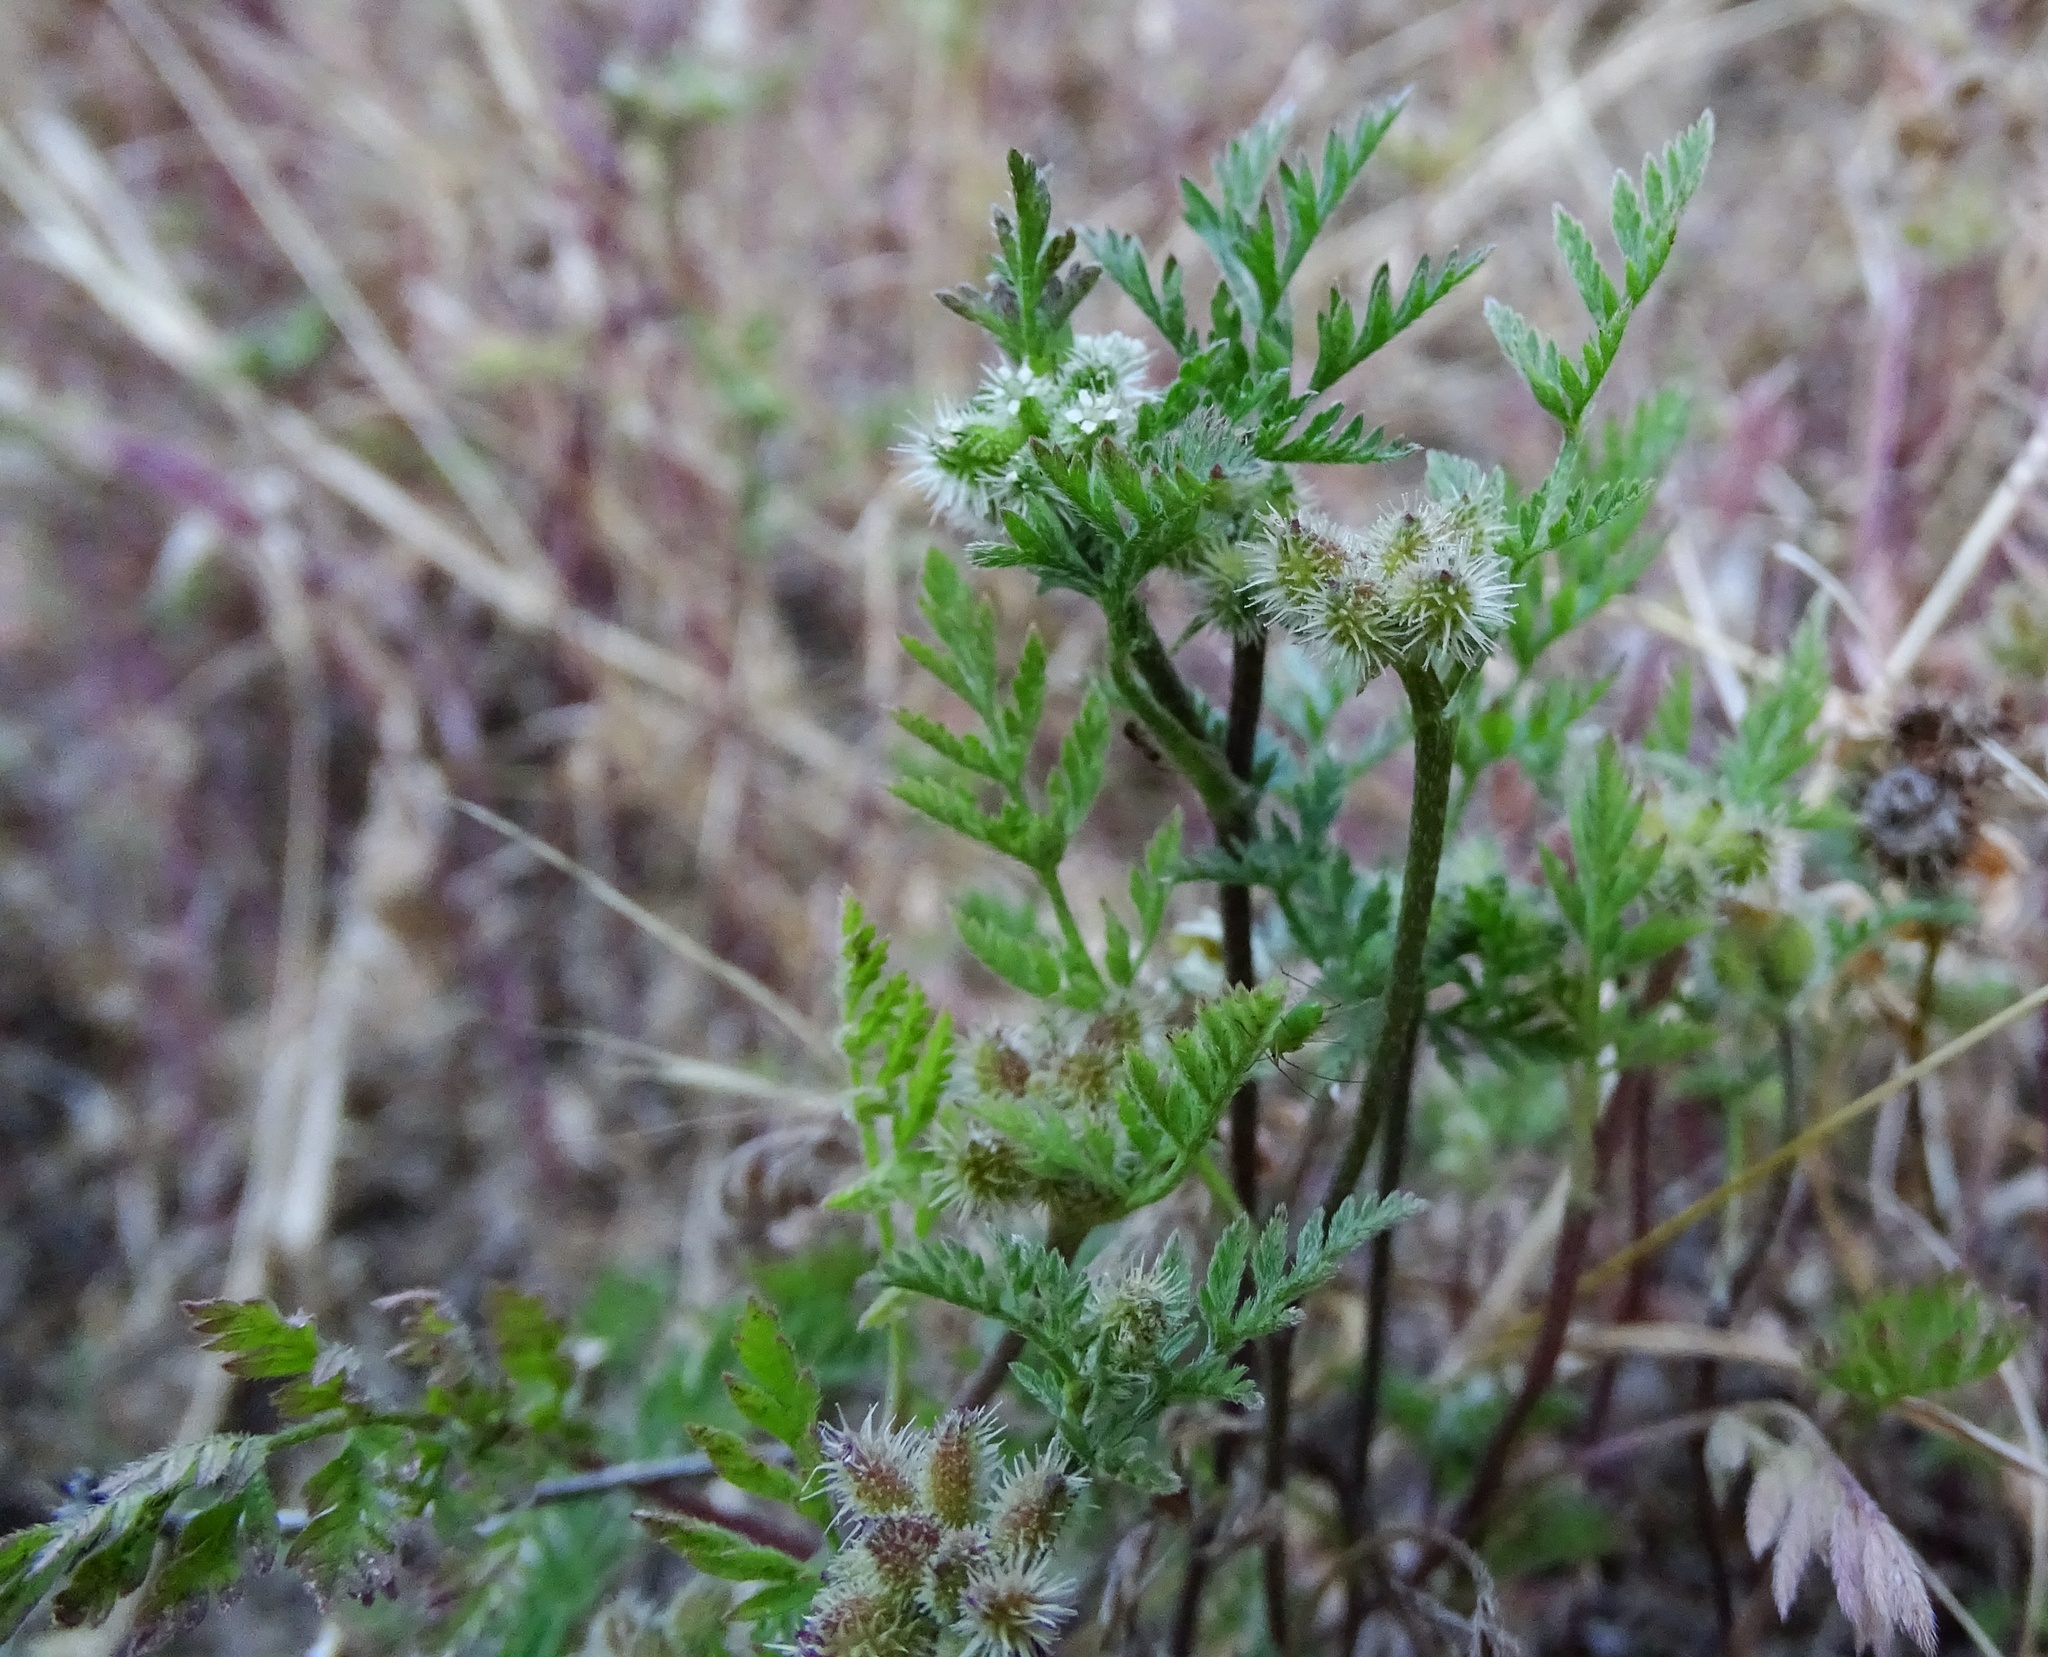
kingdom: Plantae
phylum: Tracheophyta
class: Magnoliopsida
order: Apiales
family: Apiaceae
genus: Torilis
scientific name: Torilis nodosa
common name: Knotted hedge-parsley
